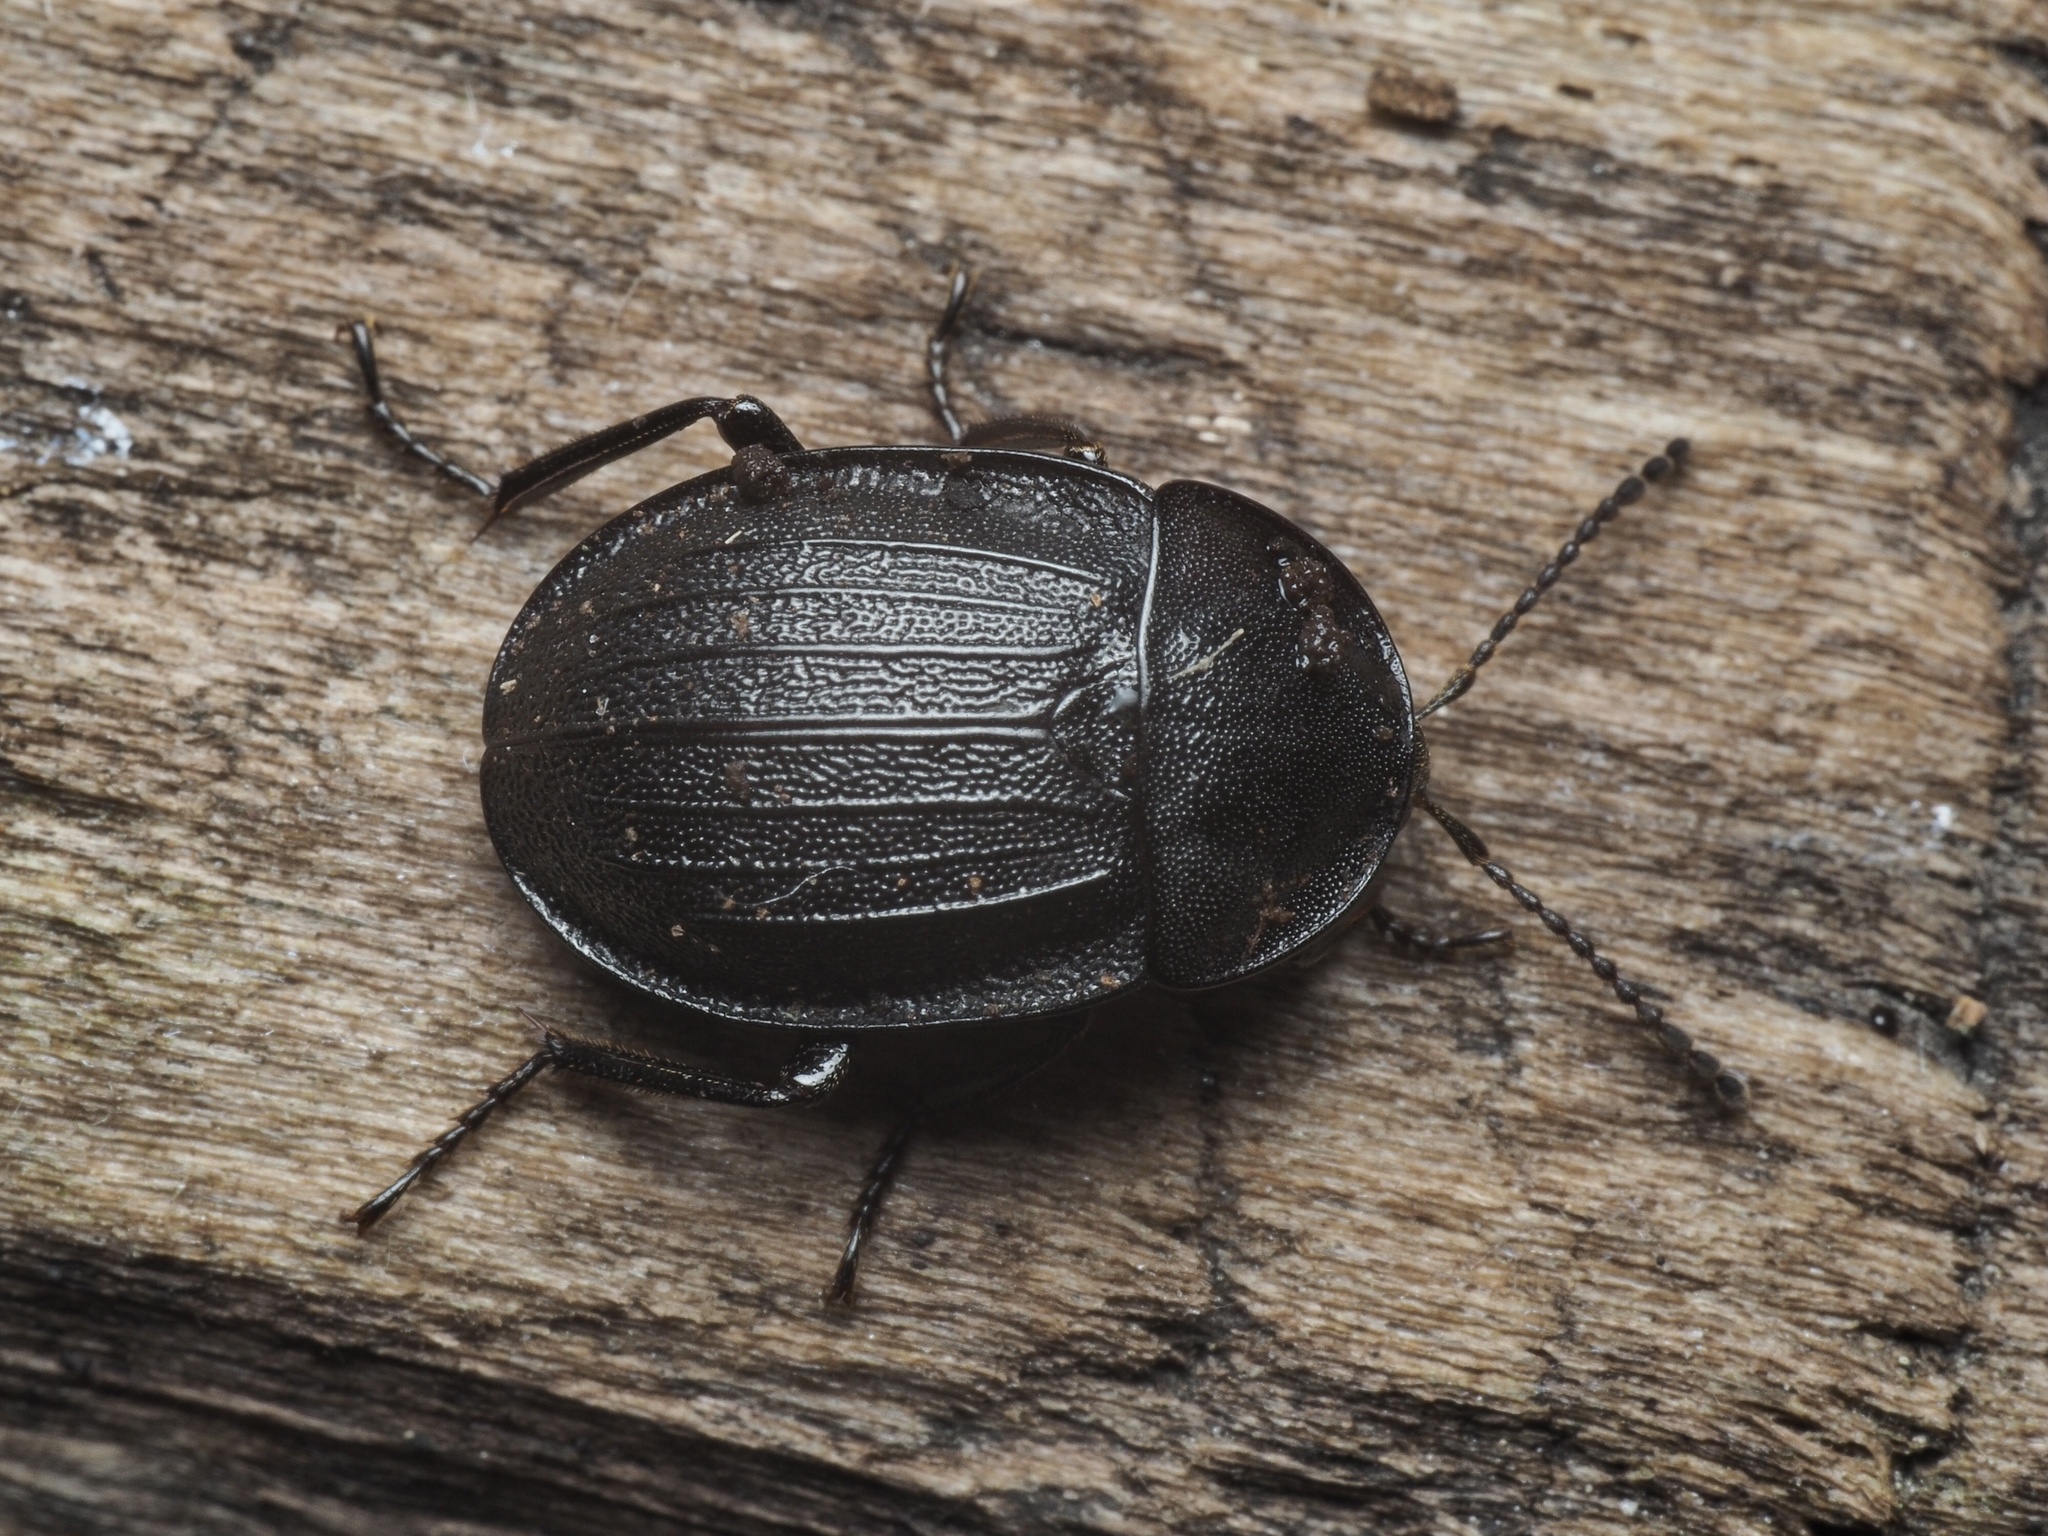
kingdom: Animalia
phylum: Arthropoda
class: Insecta
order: Coleoptera
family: Staphylinidae
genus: Silpha
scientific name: Silpha atrata
